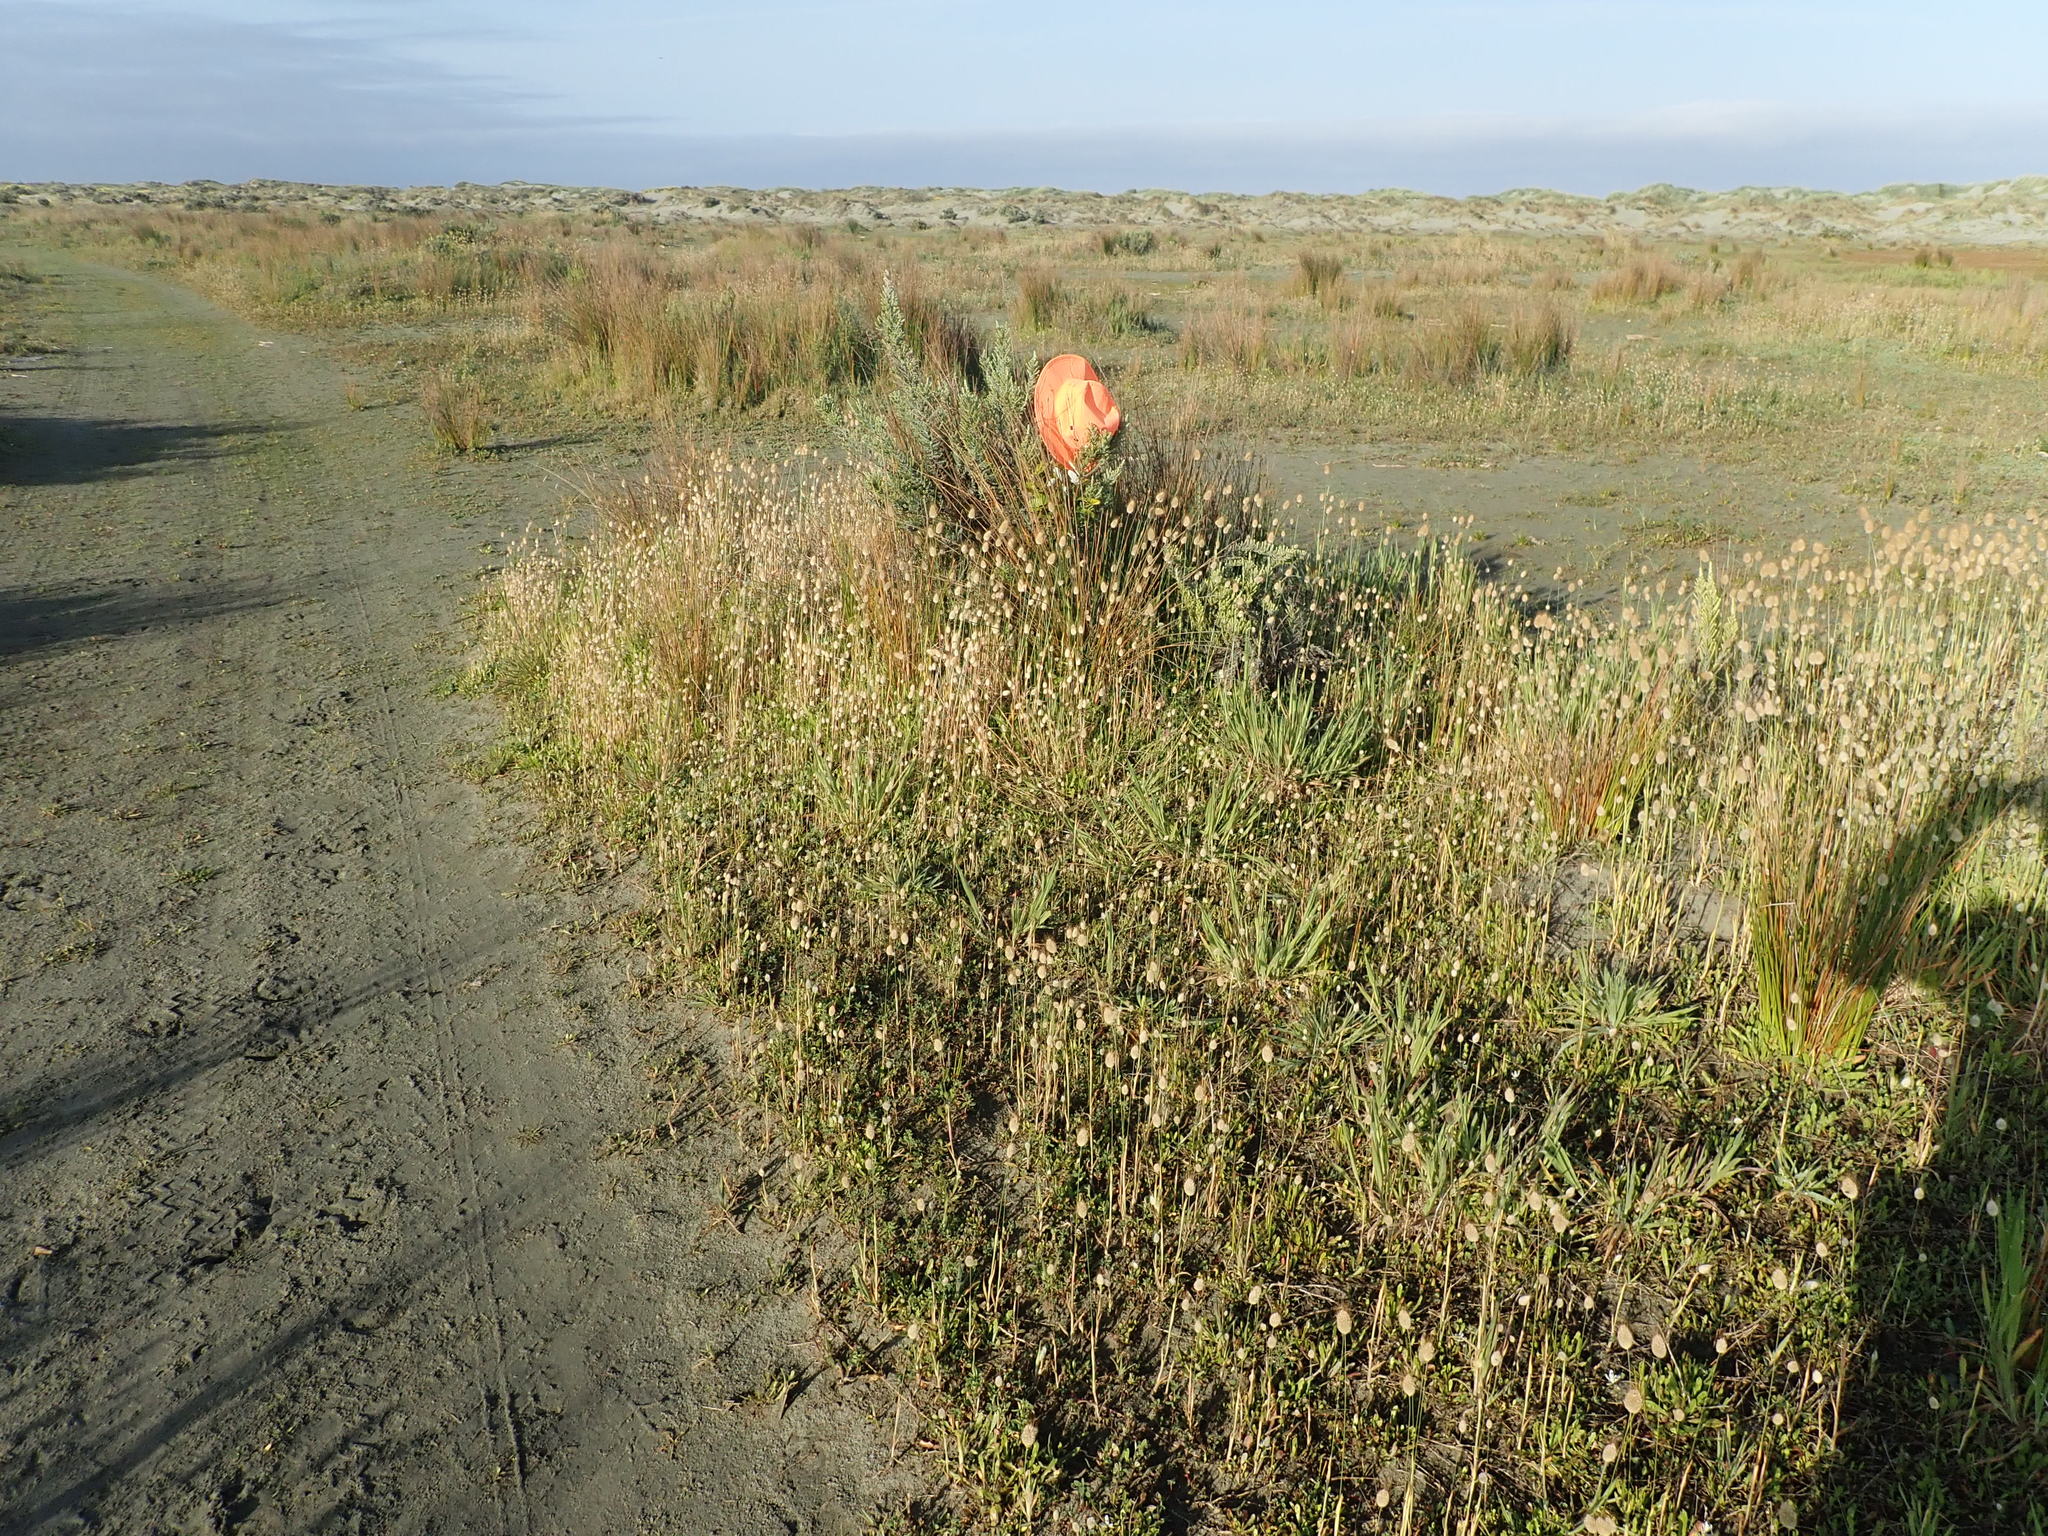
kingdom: Plantae
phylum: Tracheophyta
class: Magnoliopsida
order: Proteales
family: Proteaceae
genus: Banksia
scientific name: Banksia integrifolia
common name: White-honeysuckle
